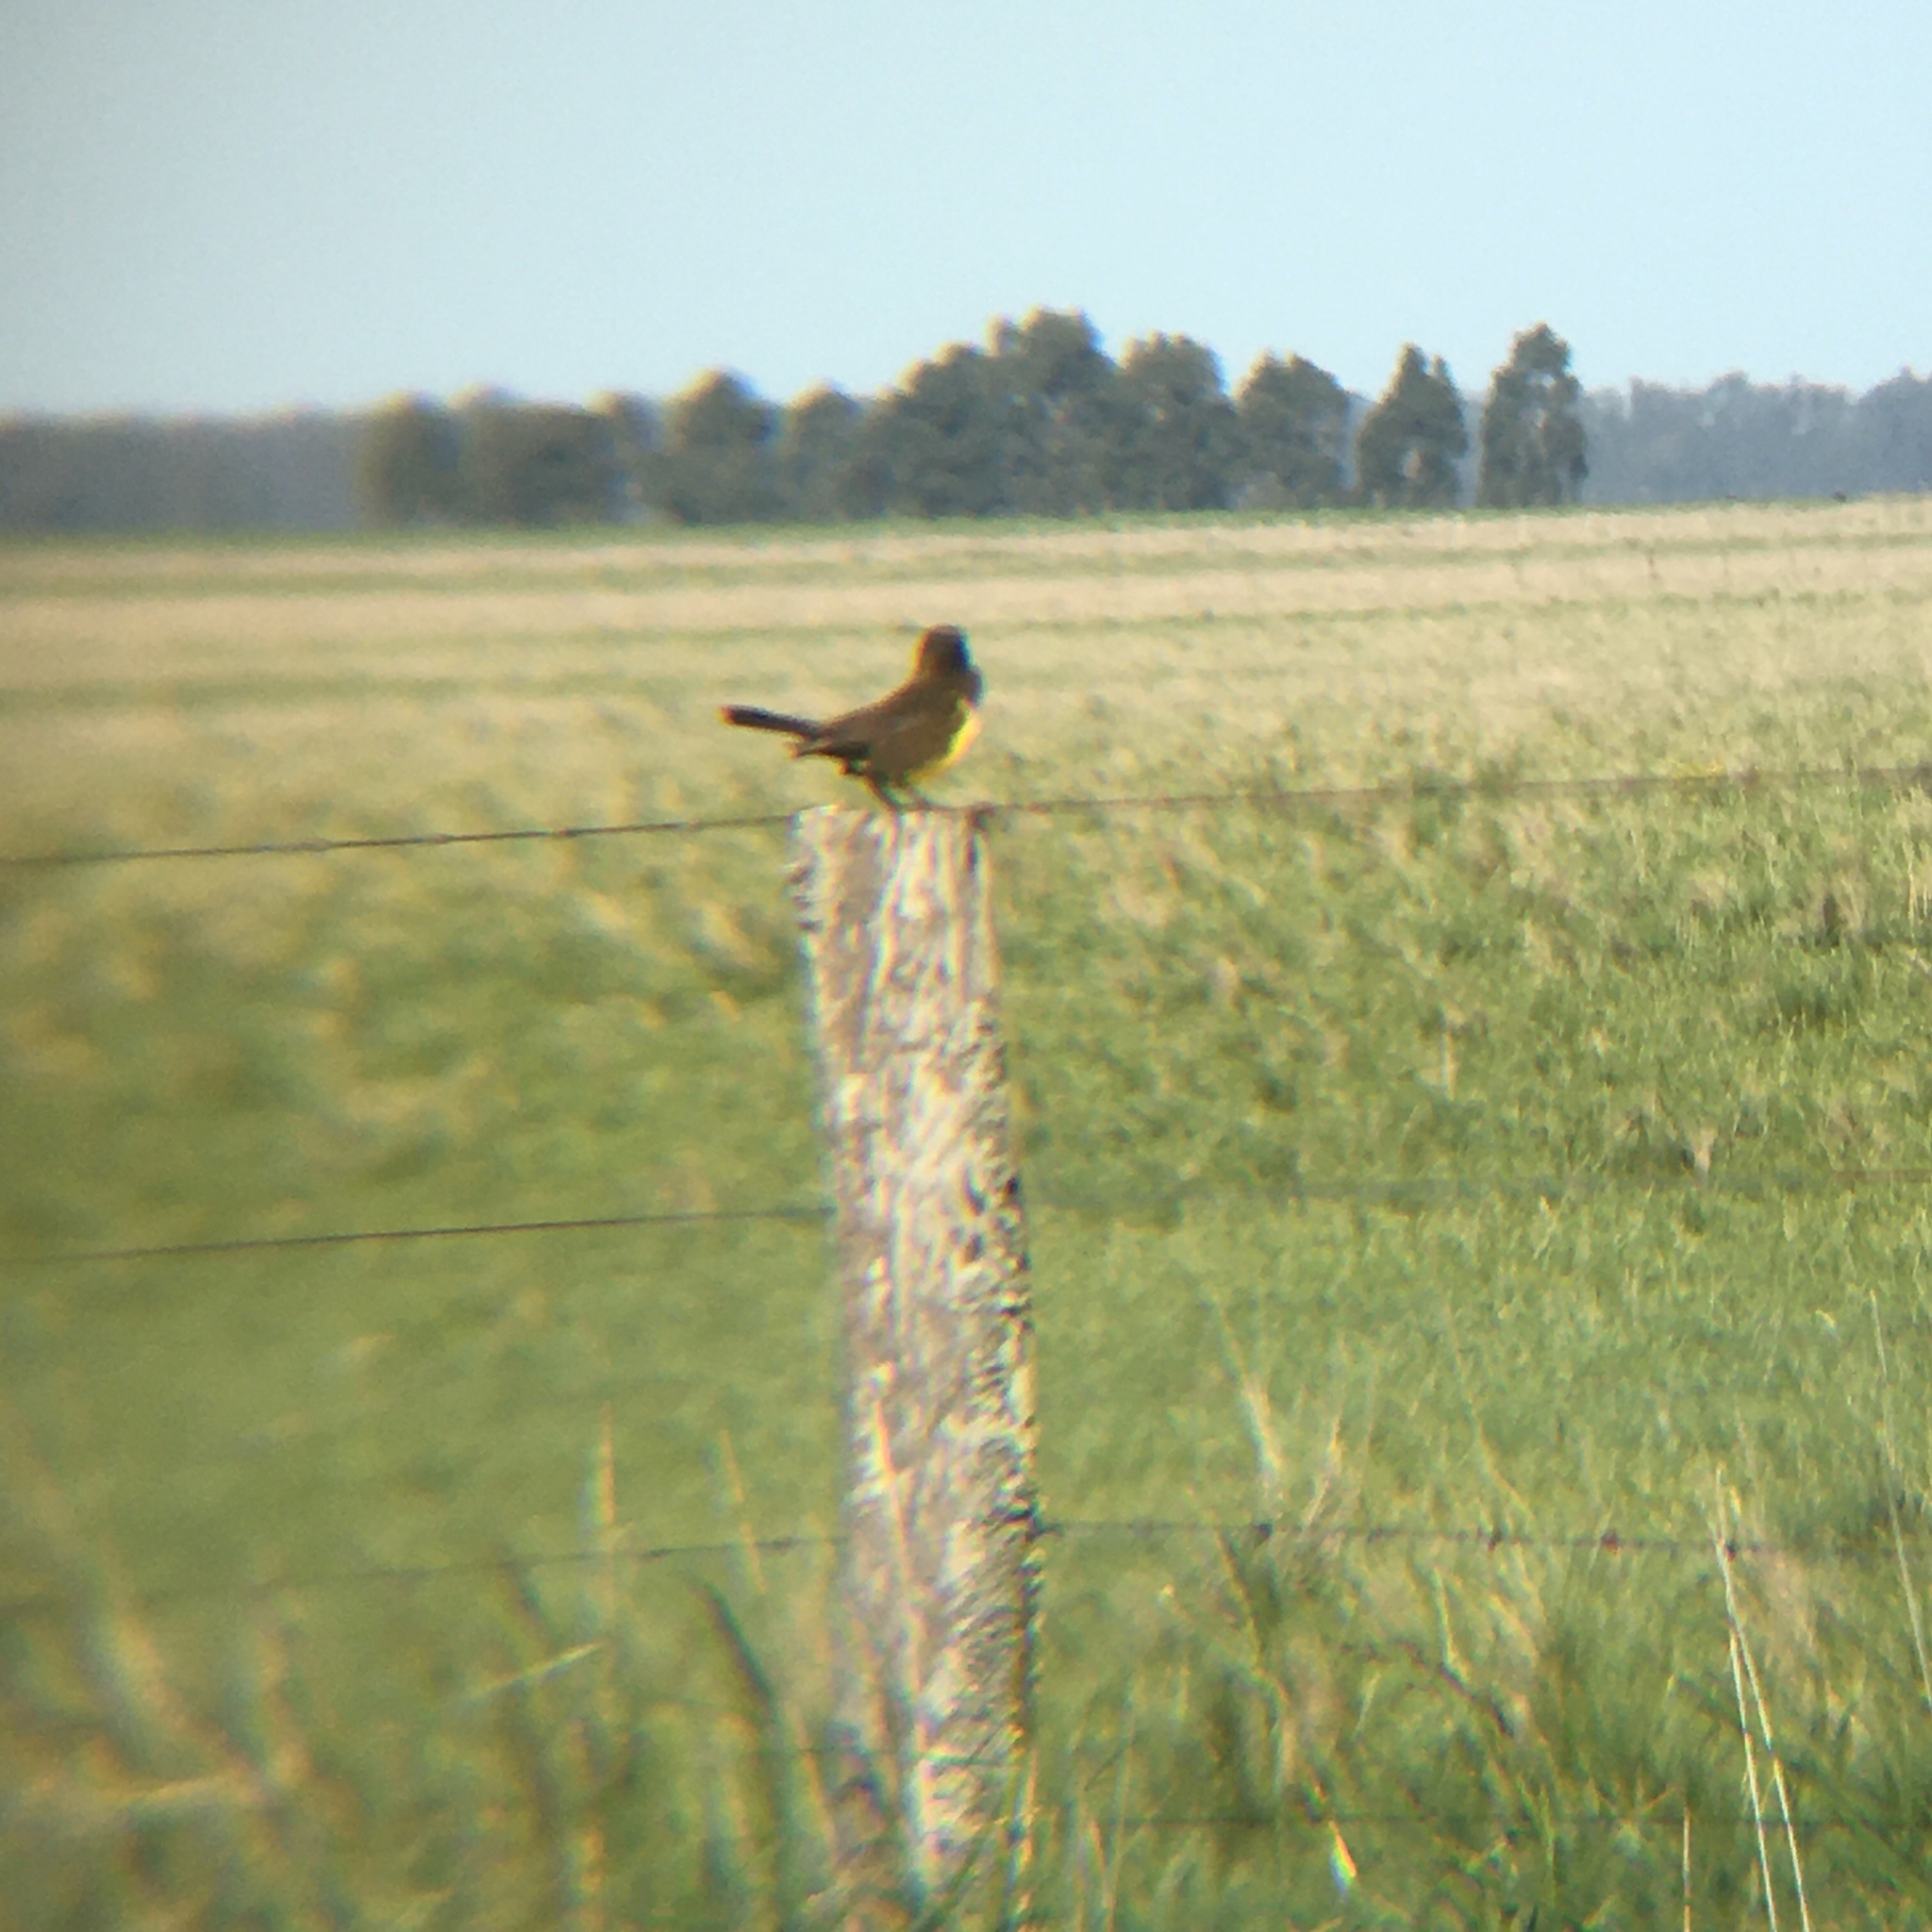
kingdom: Animalia
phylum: Chordata
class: Aves
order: Passeriformes
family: Icteridae
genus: Pseudoleistes
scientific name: Pseudoleistes virescens
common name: Brown-and-yellow marshbird
